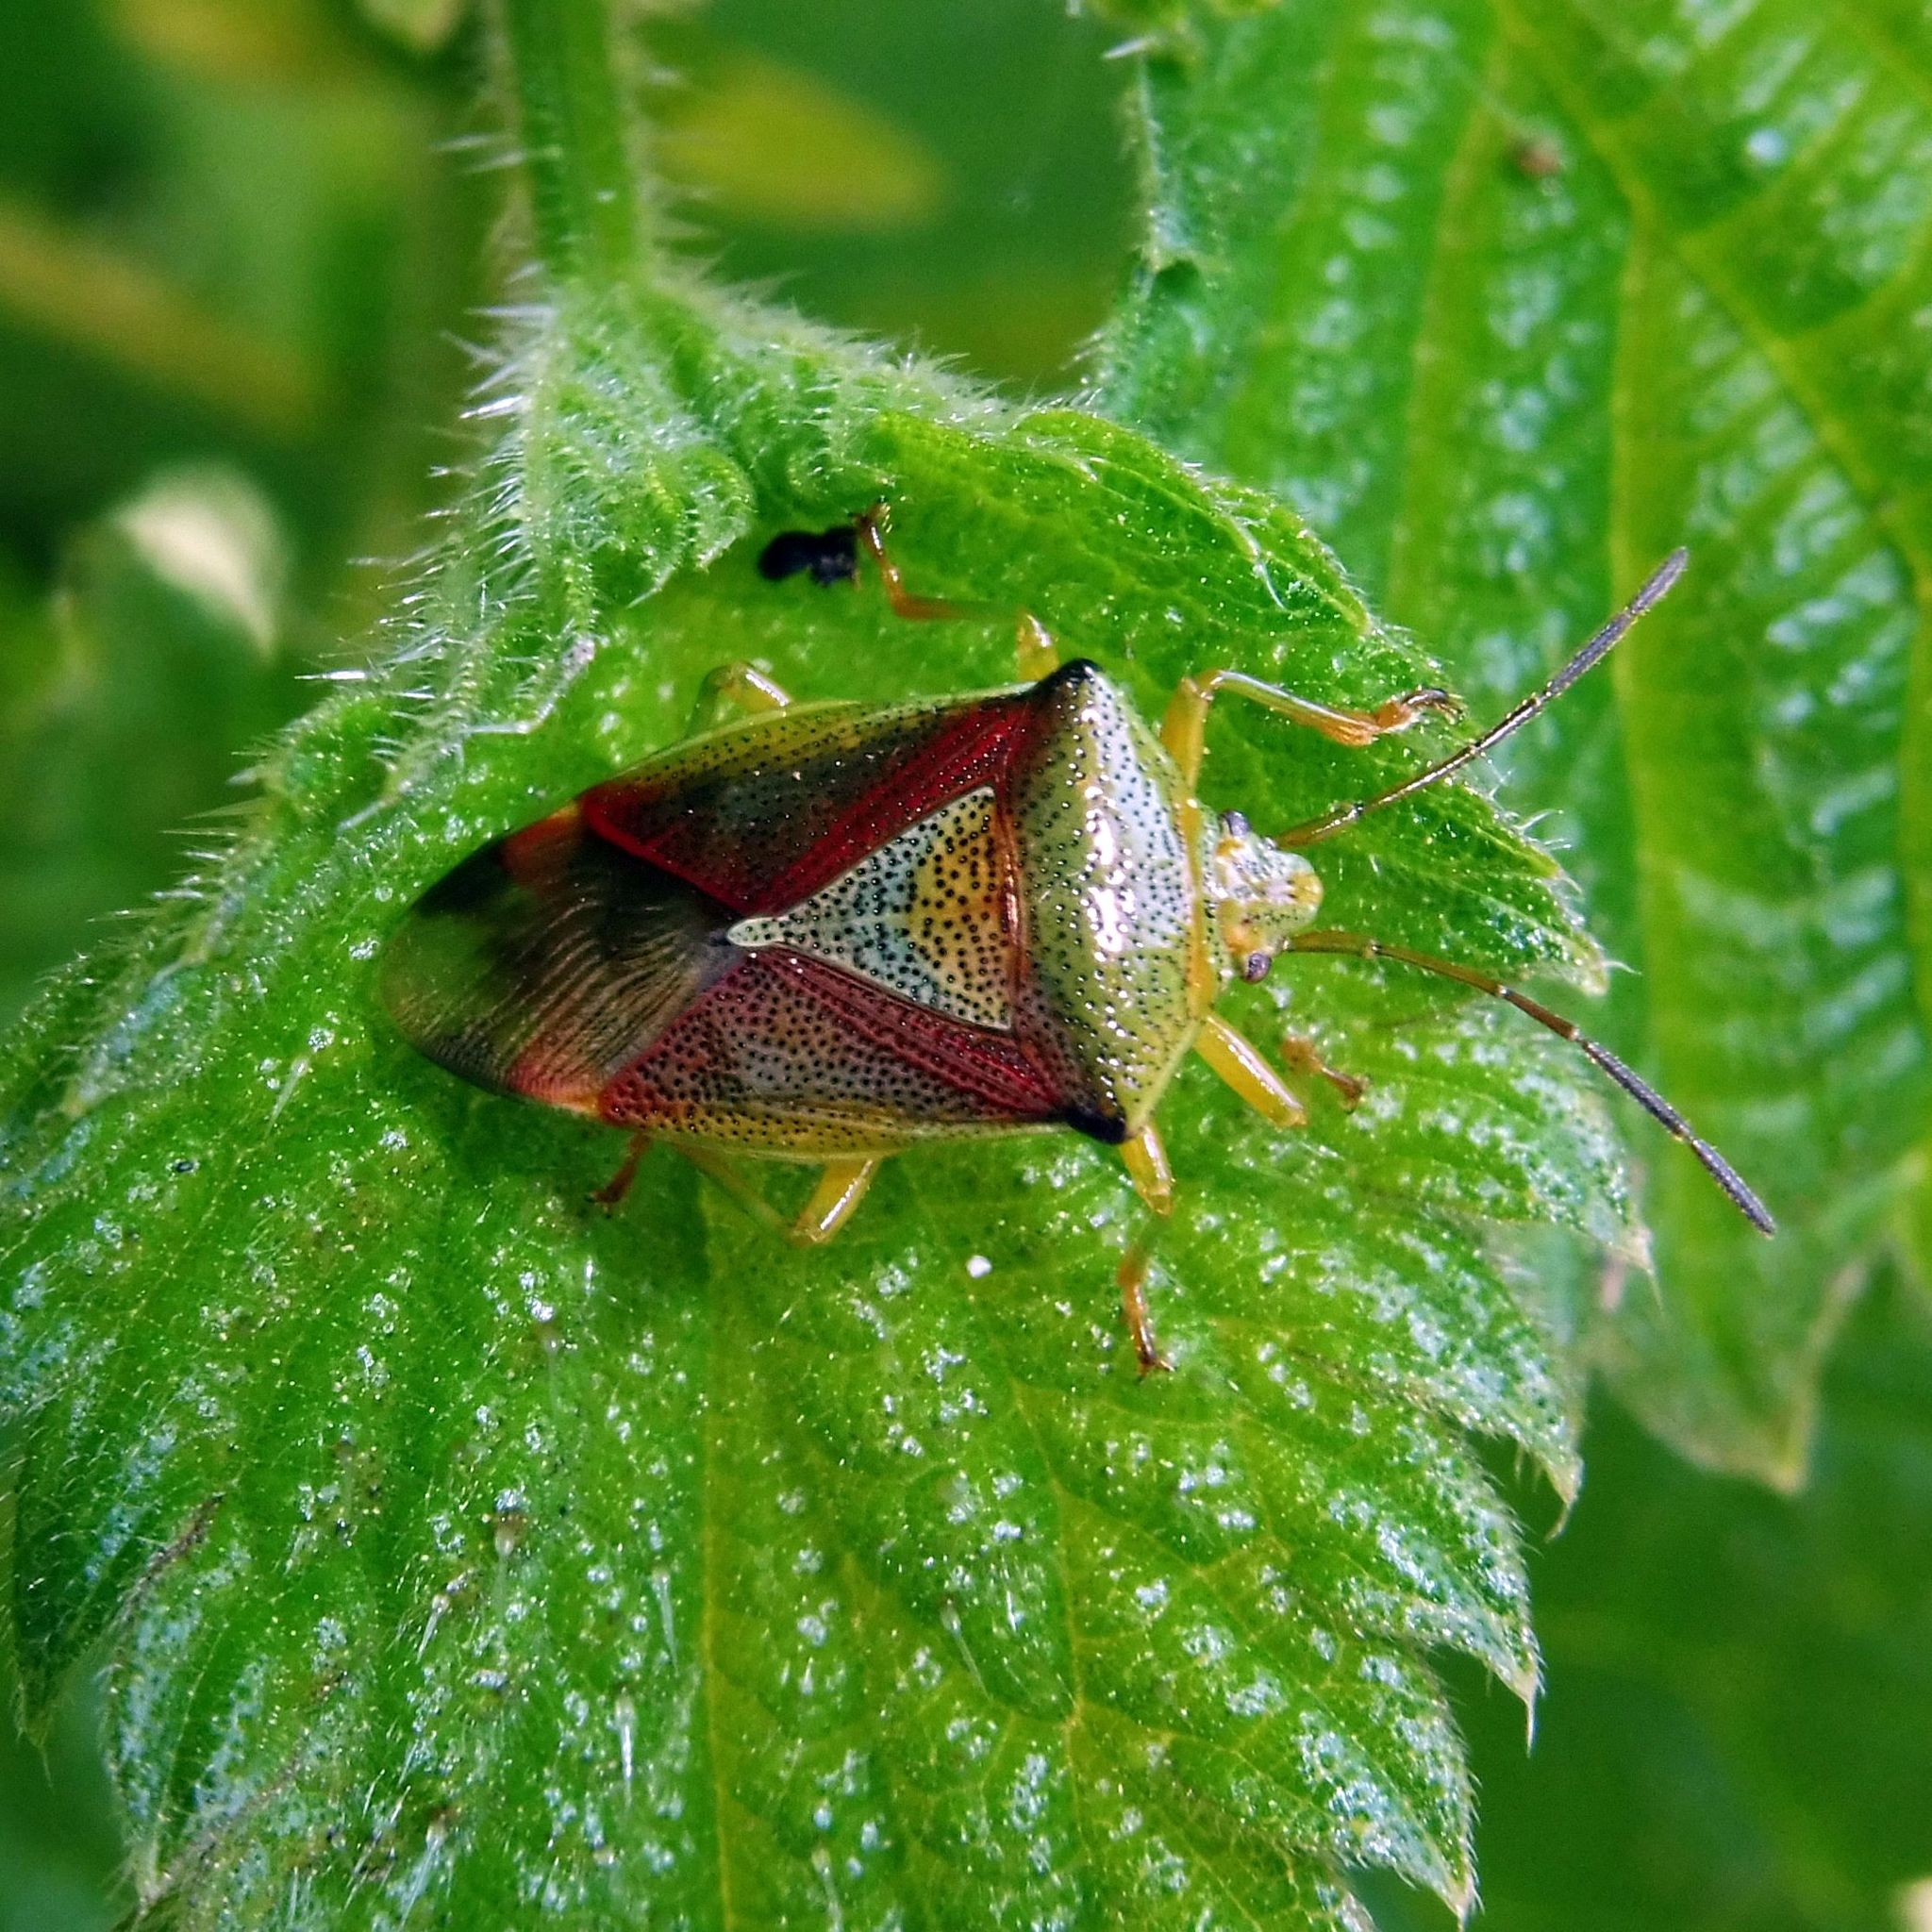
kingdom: Animalia
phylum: Arthropoda
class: Insecta
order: Hemiptera
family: Acanthosomatidae
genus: Elasmostethus
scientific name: Elasmostethus interstinctus
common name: Birch shieldbug
